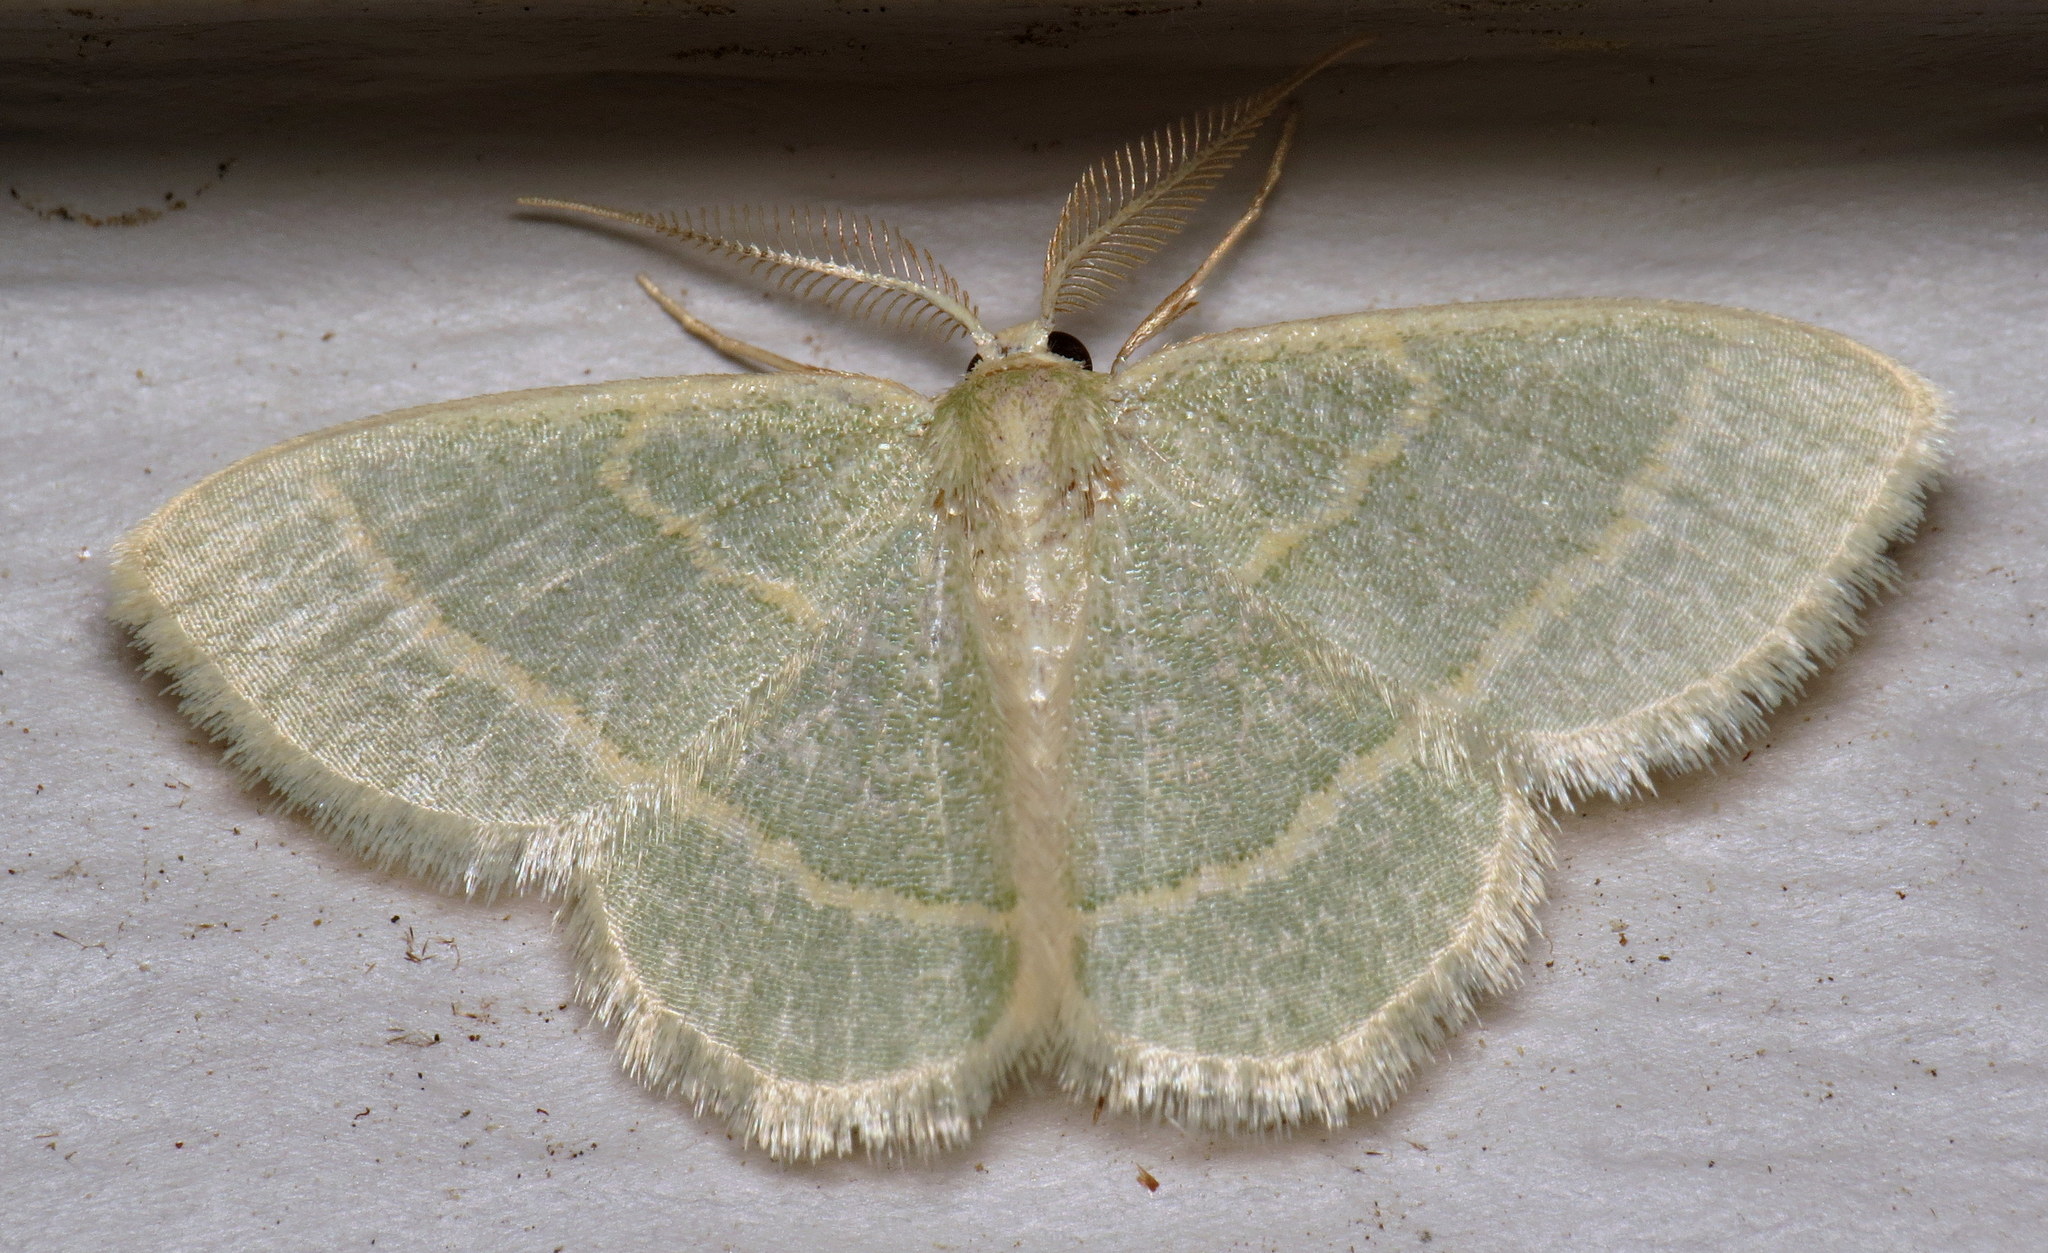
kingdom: Animalia
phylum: Arthropoda
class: Insecta
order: Lepidoptera
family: Geometridae
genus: Chlorochlamys
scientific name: Chlorochlamys chloroleucaria
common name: Blackberry looper
